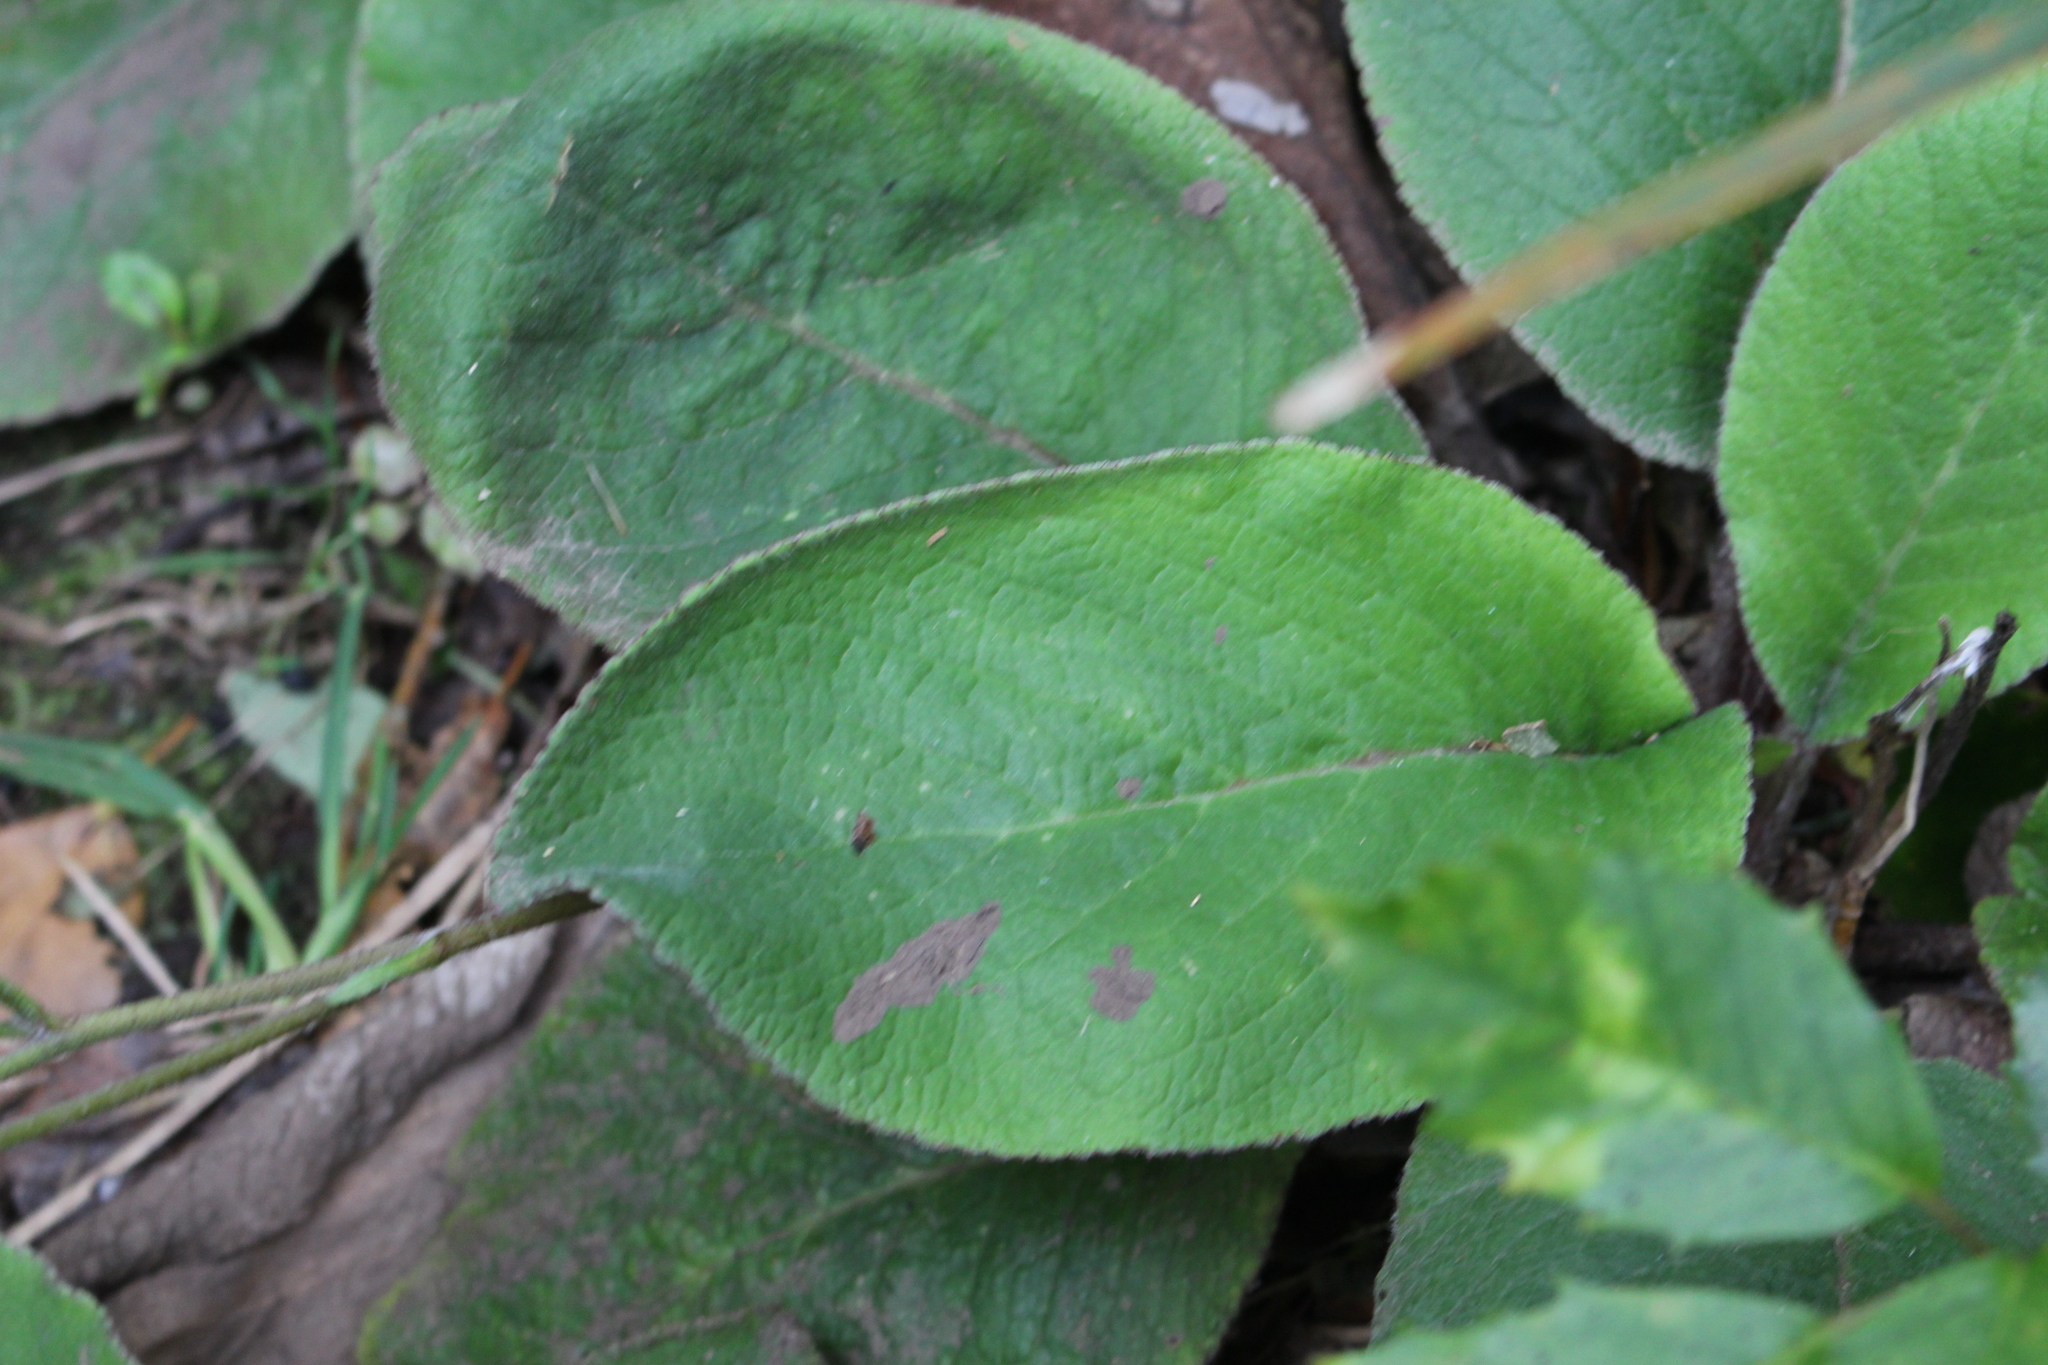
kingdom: Plantae
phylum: Tracheophyta
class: Magnoliopsida
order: Asterales
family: Asteraceae
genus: Brachyglottis
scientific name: Brachyglottis lagopus
